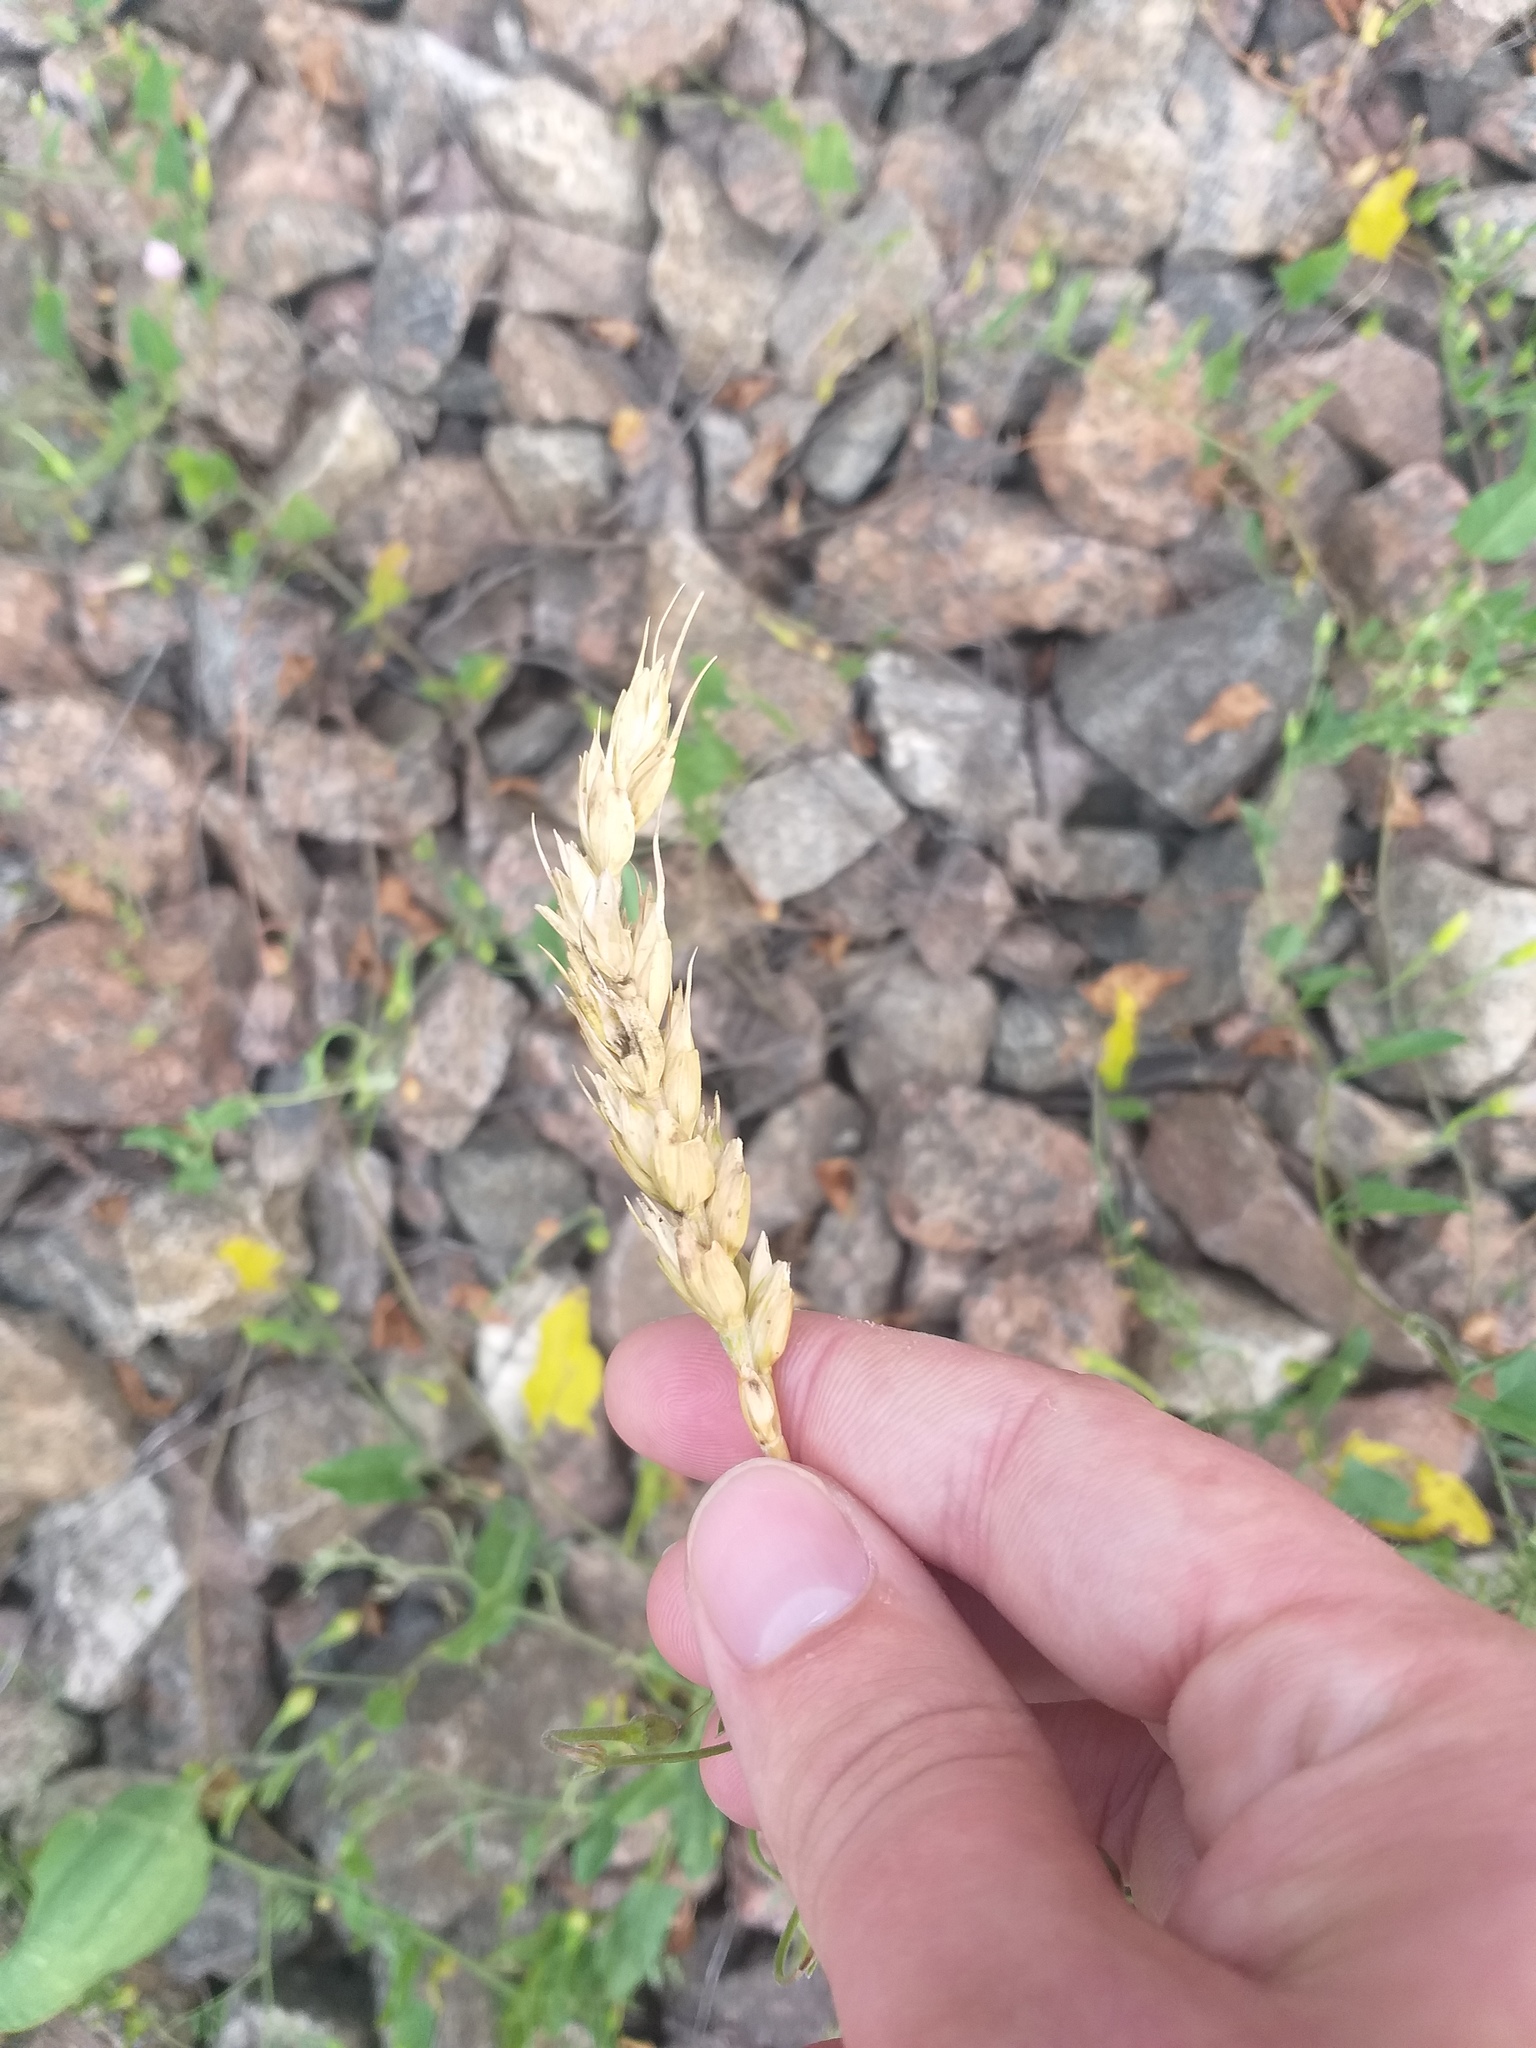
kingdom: Plantae
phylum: Tracheophyta
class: Liliopsida
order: Poales
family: Poaceae
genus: Triticum
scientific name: Triticum aestivum
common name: Common wheat
